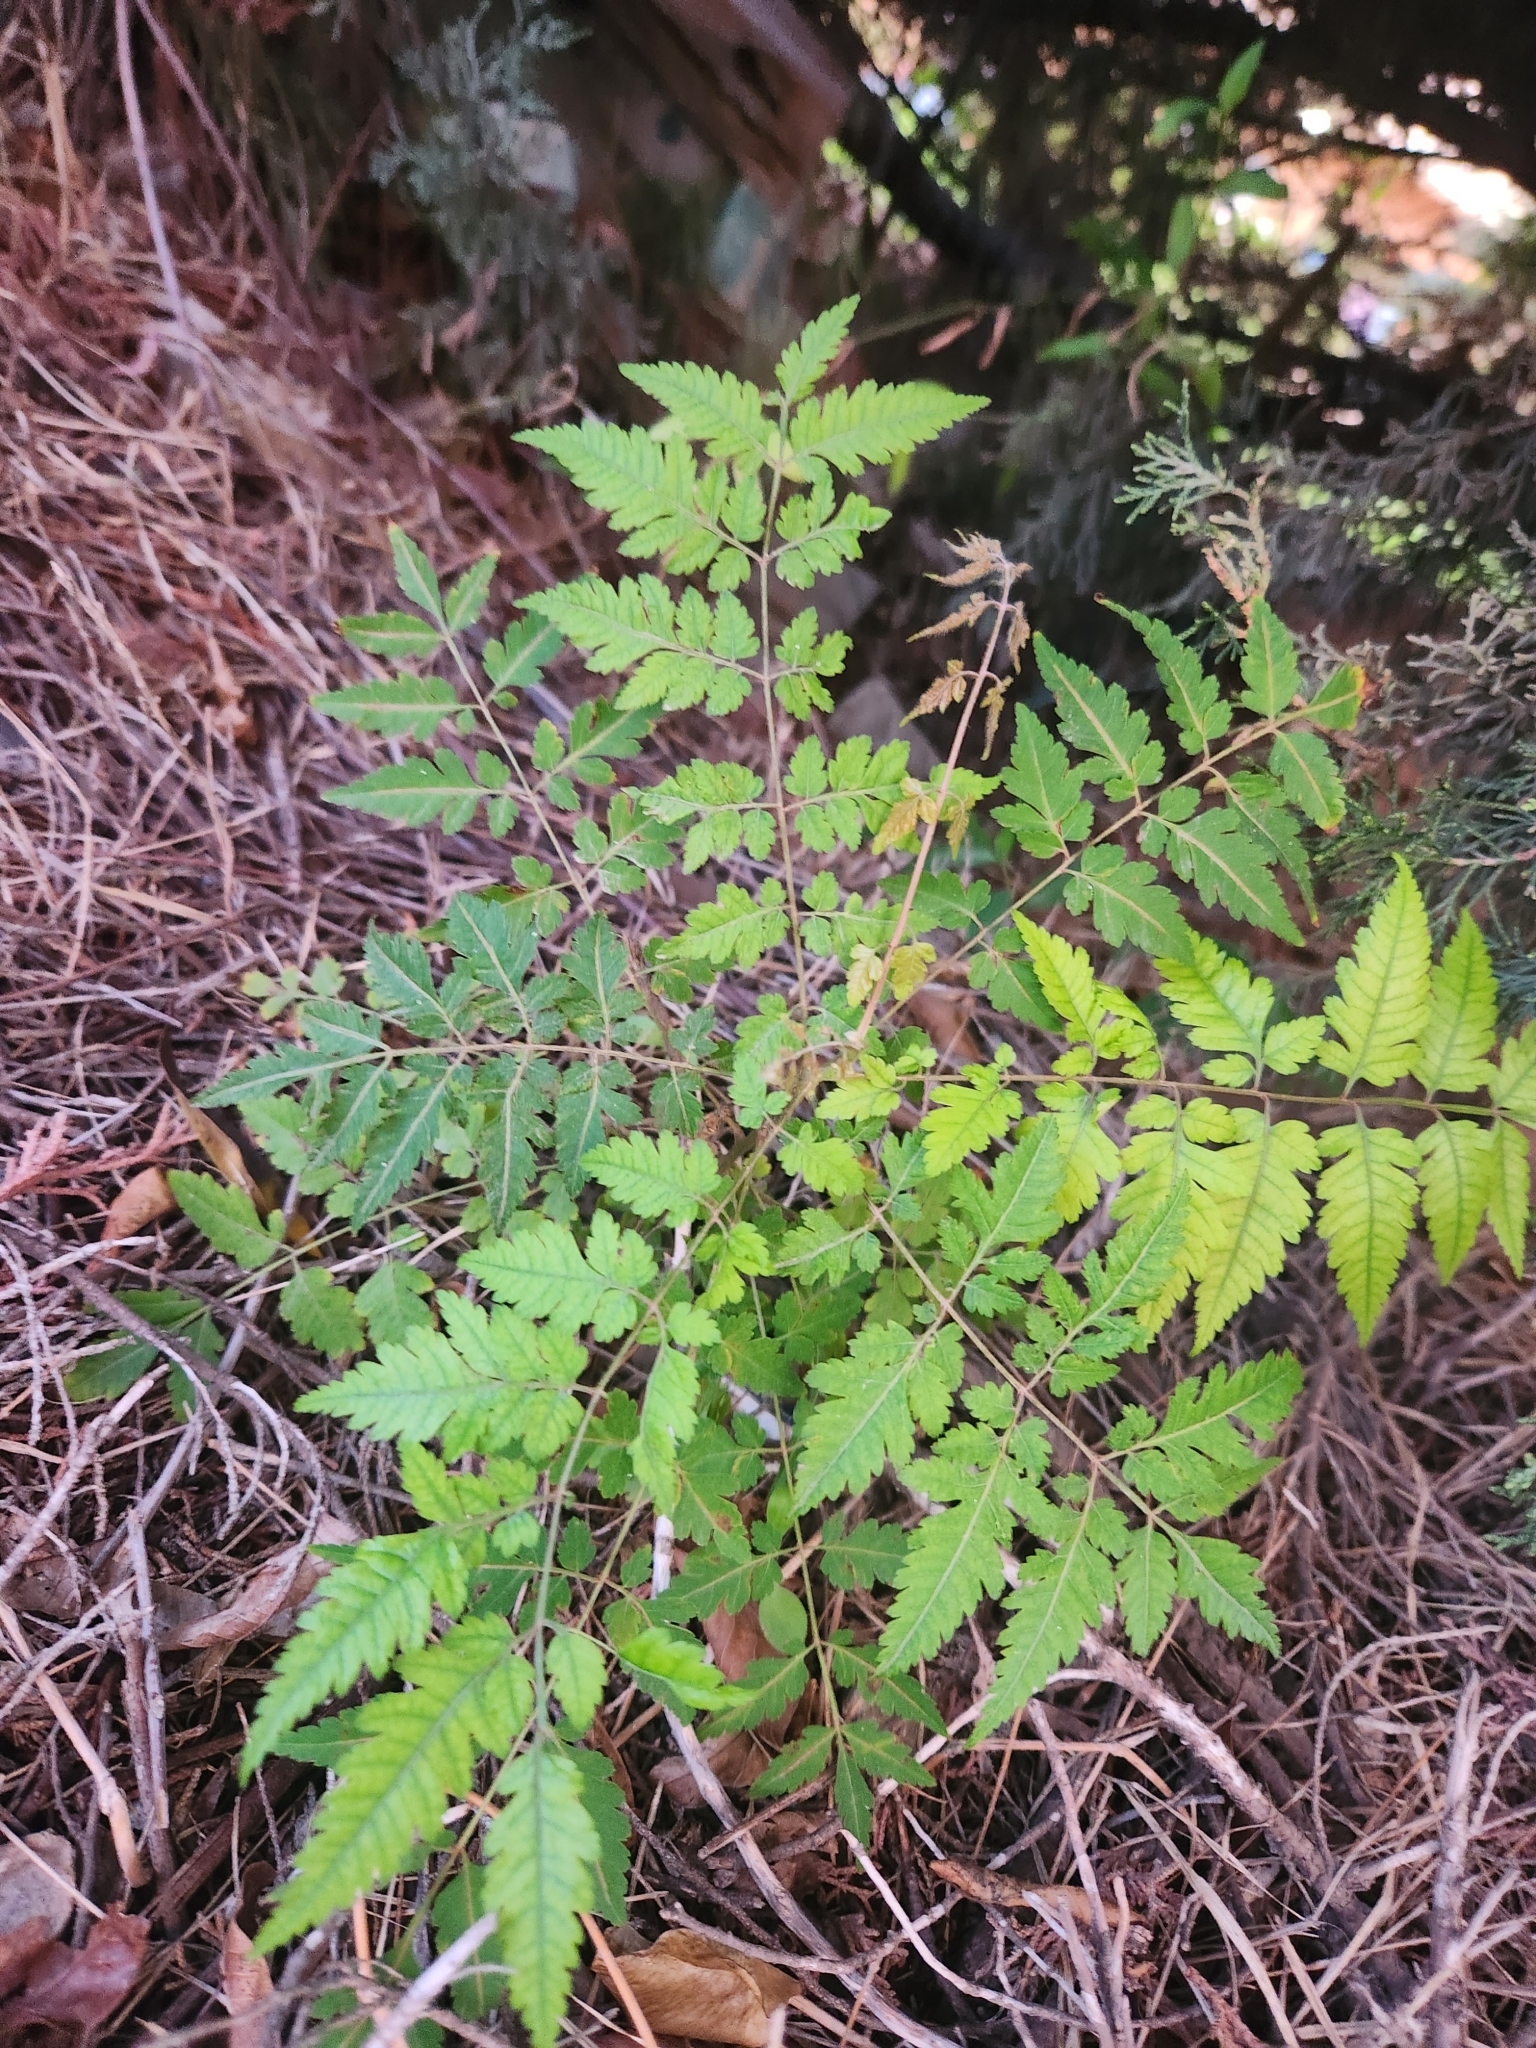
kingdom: Plantae
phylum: Tracheophyta
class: Magnoliopsida
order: Sapindales
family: Meliaceae
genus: Melia
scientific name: Melia azedarach
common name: Chinaberrytree
